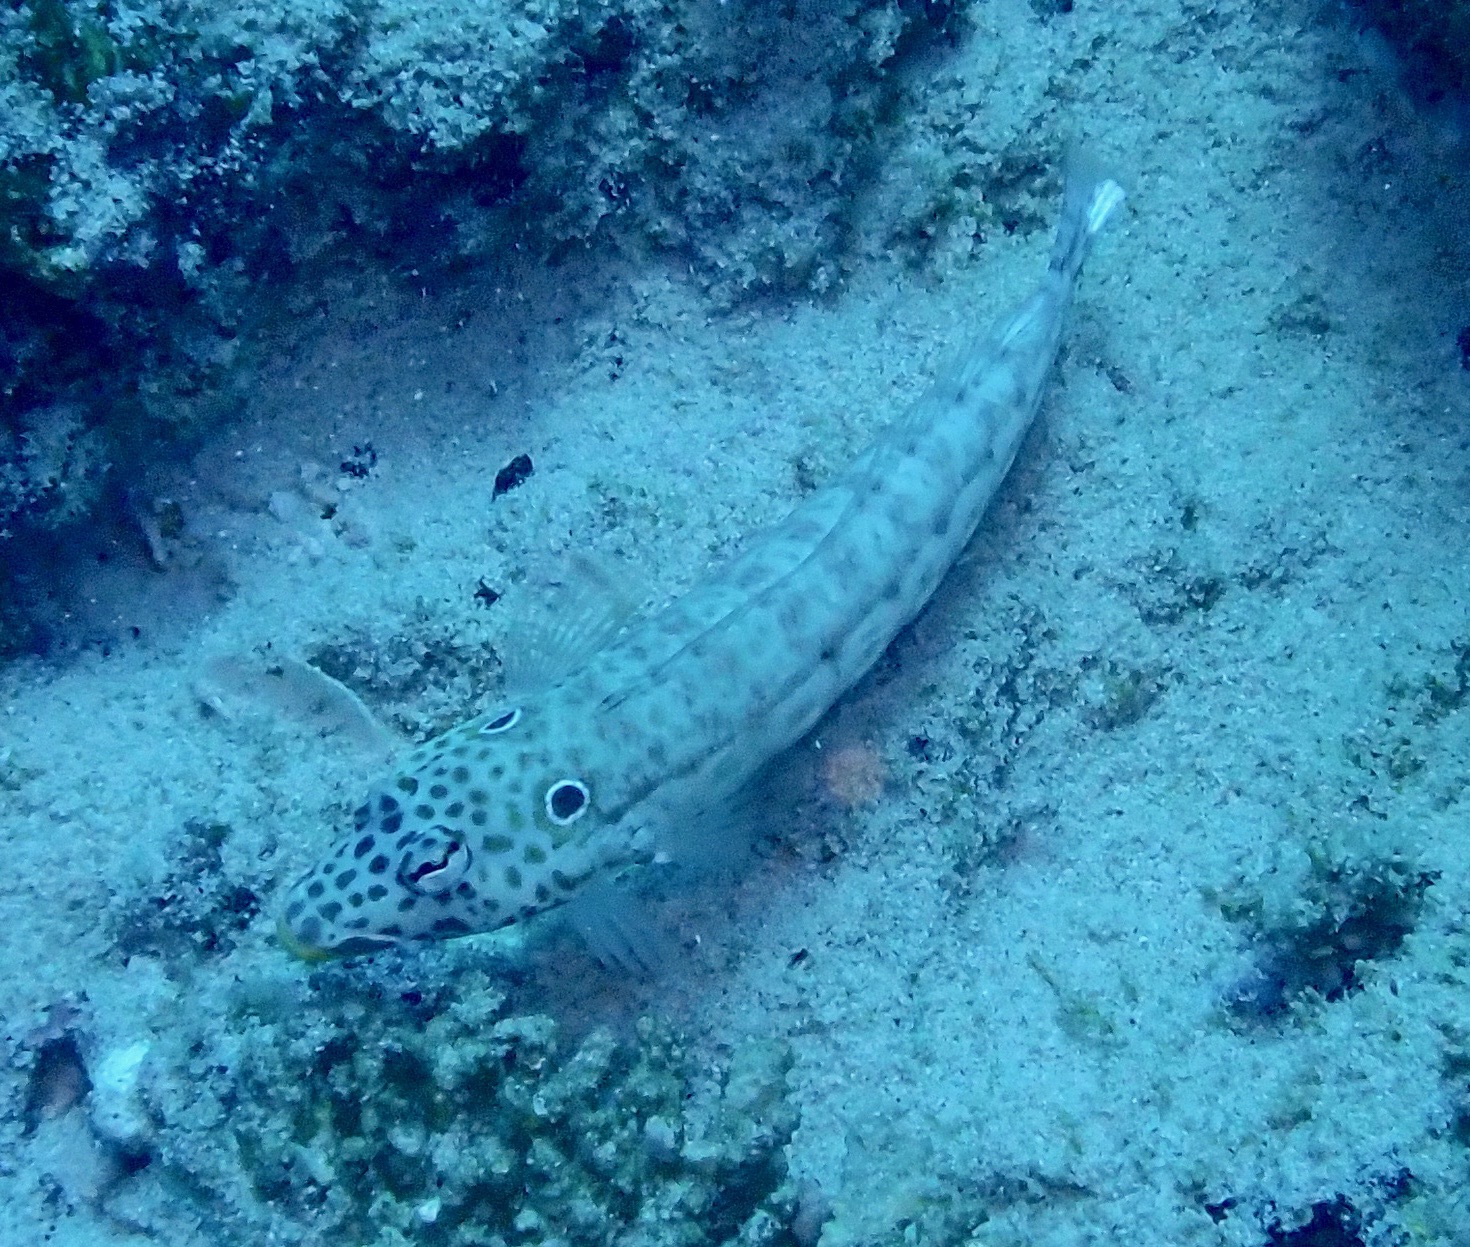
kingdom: Animalia
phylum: Chordata
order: Perciformes
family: Pinguipedidae
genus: Parapercis
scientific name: Parapercis clathrata
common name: Latticed sandperch
